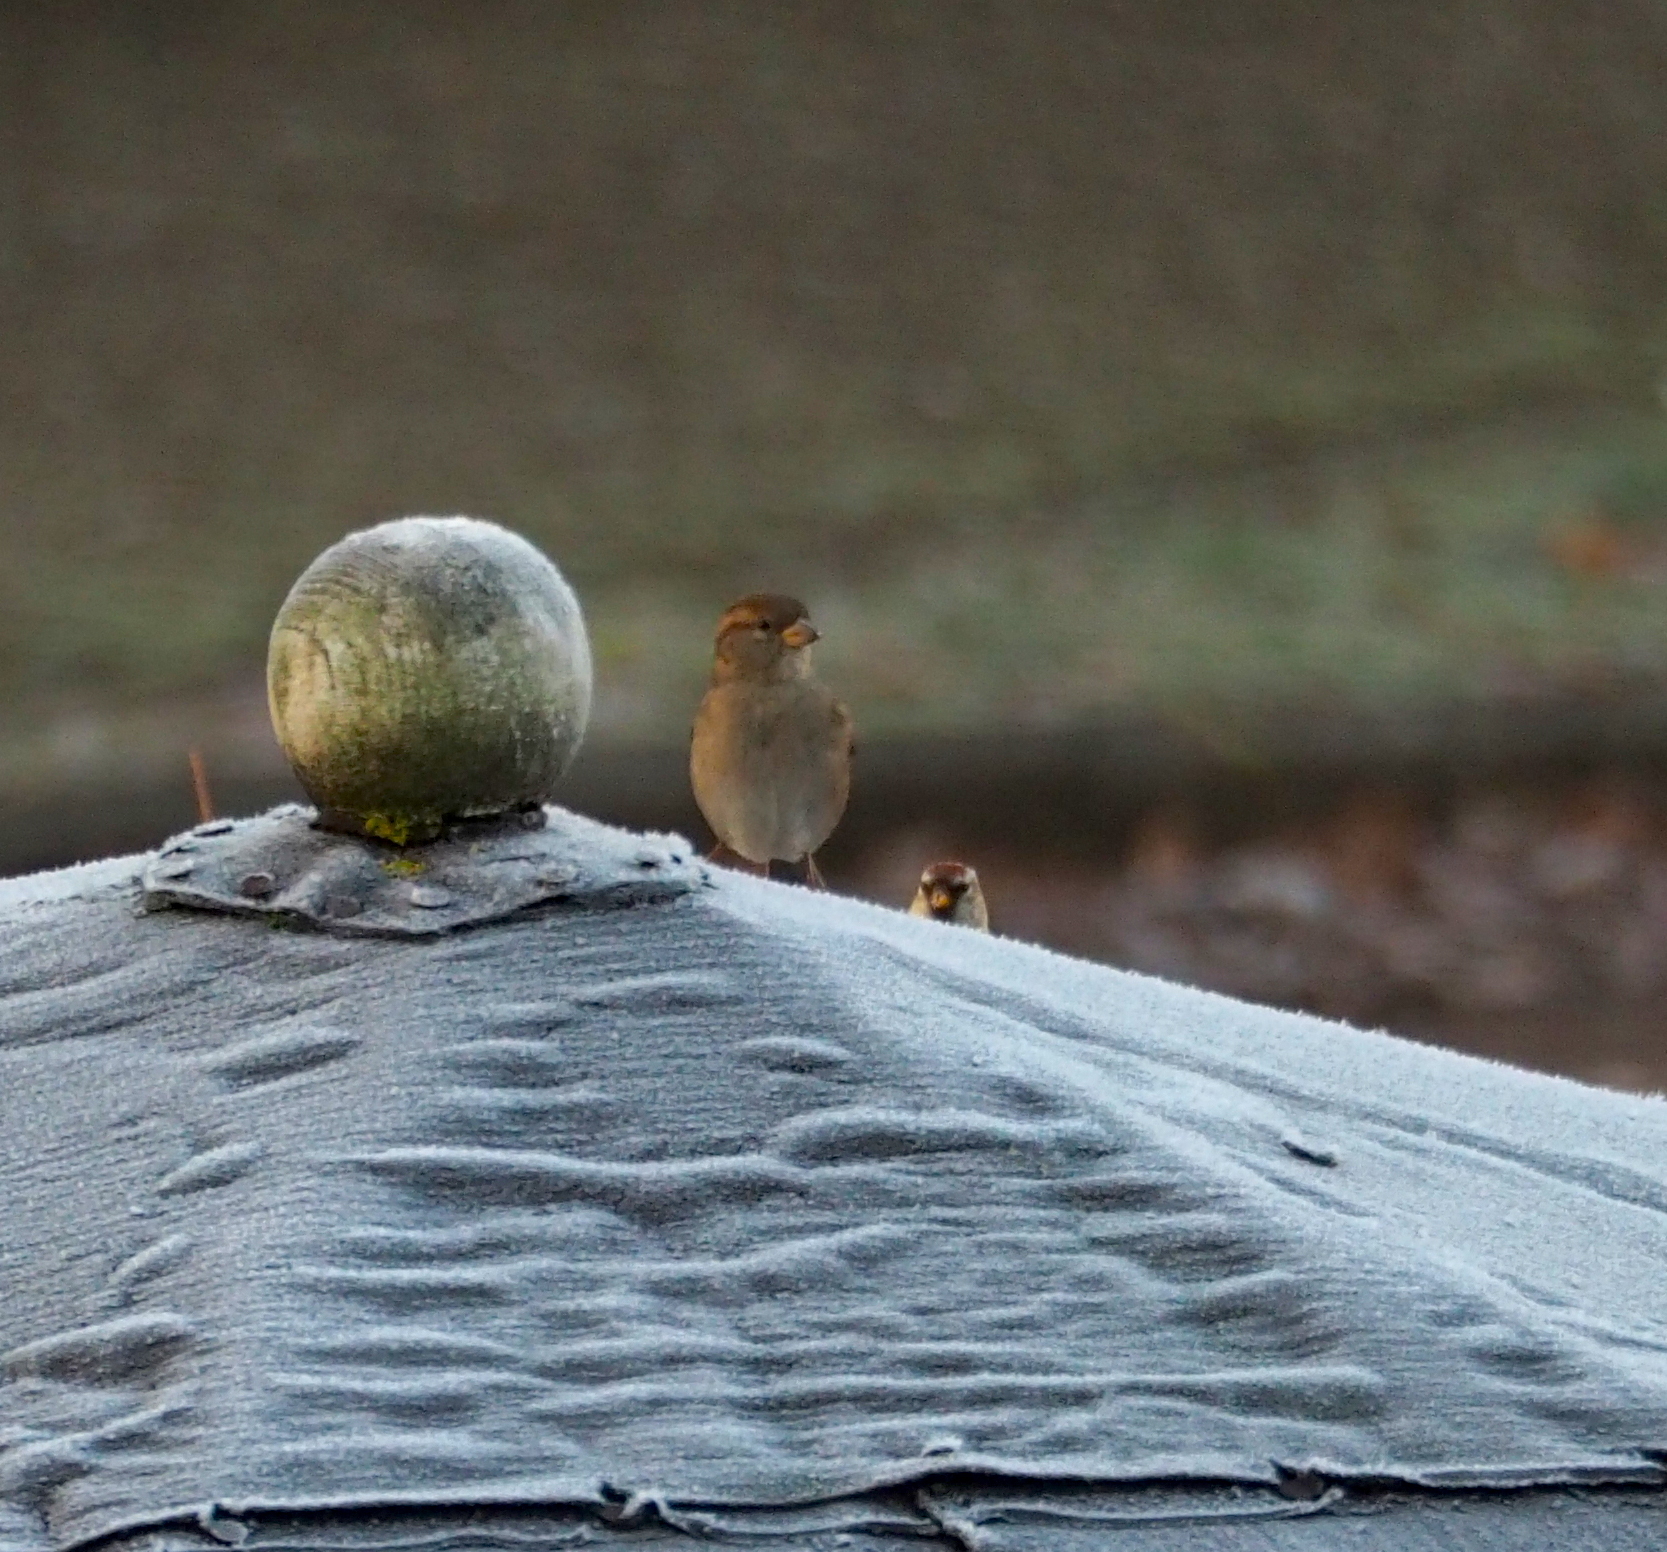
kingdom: Animalia
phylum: Chordata
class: Aves
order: Passeriformes
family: Passeridae
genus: Passer
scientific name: Passer domesticus
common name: House sparrow
